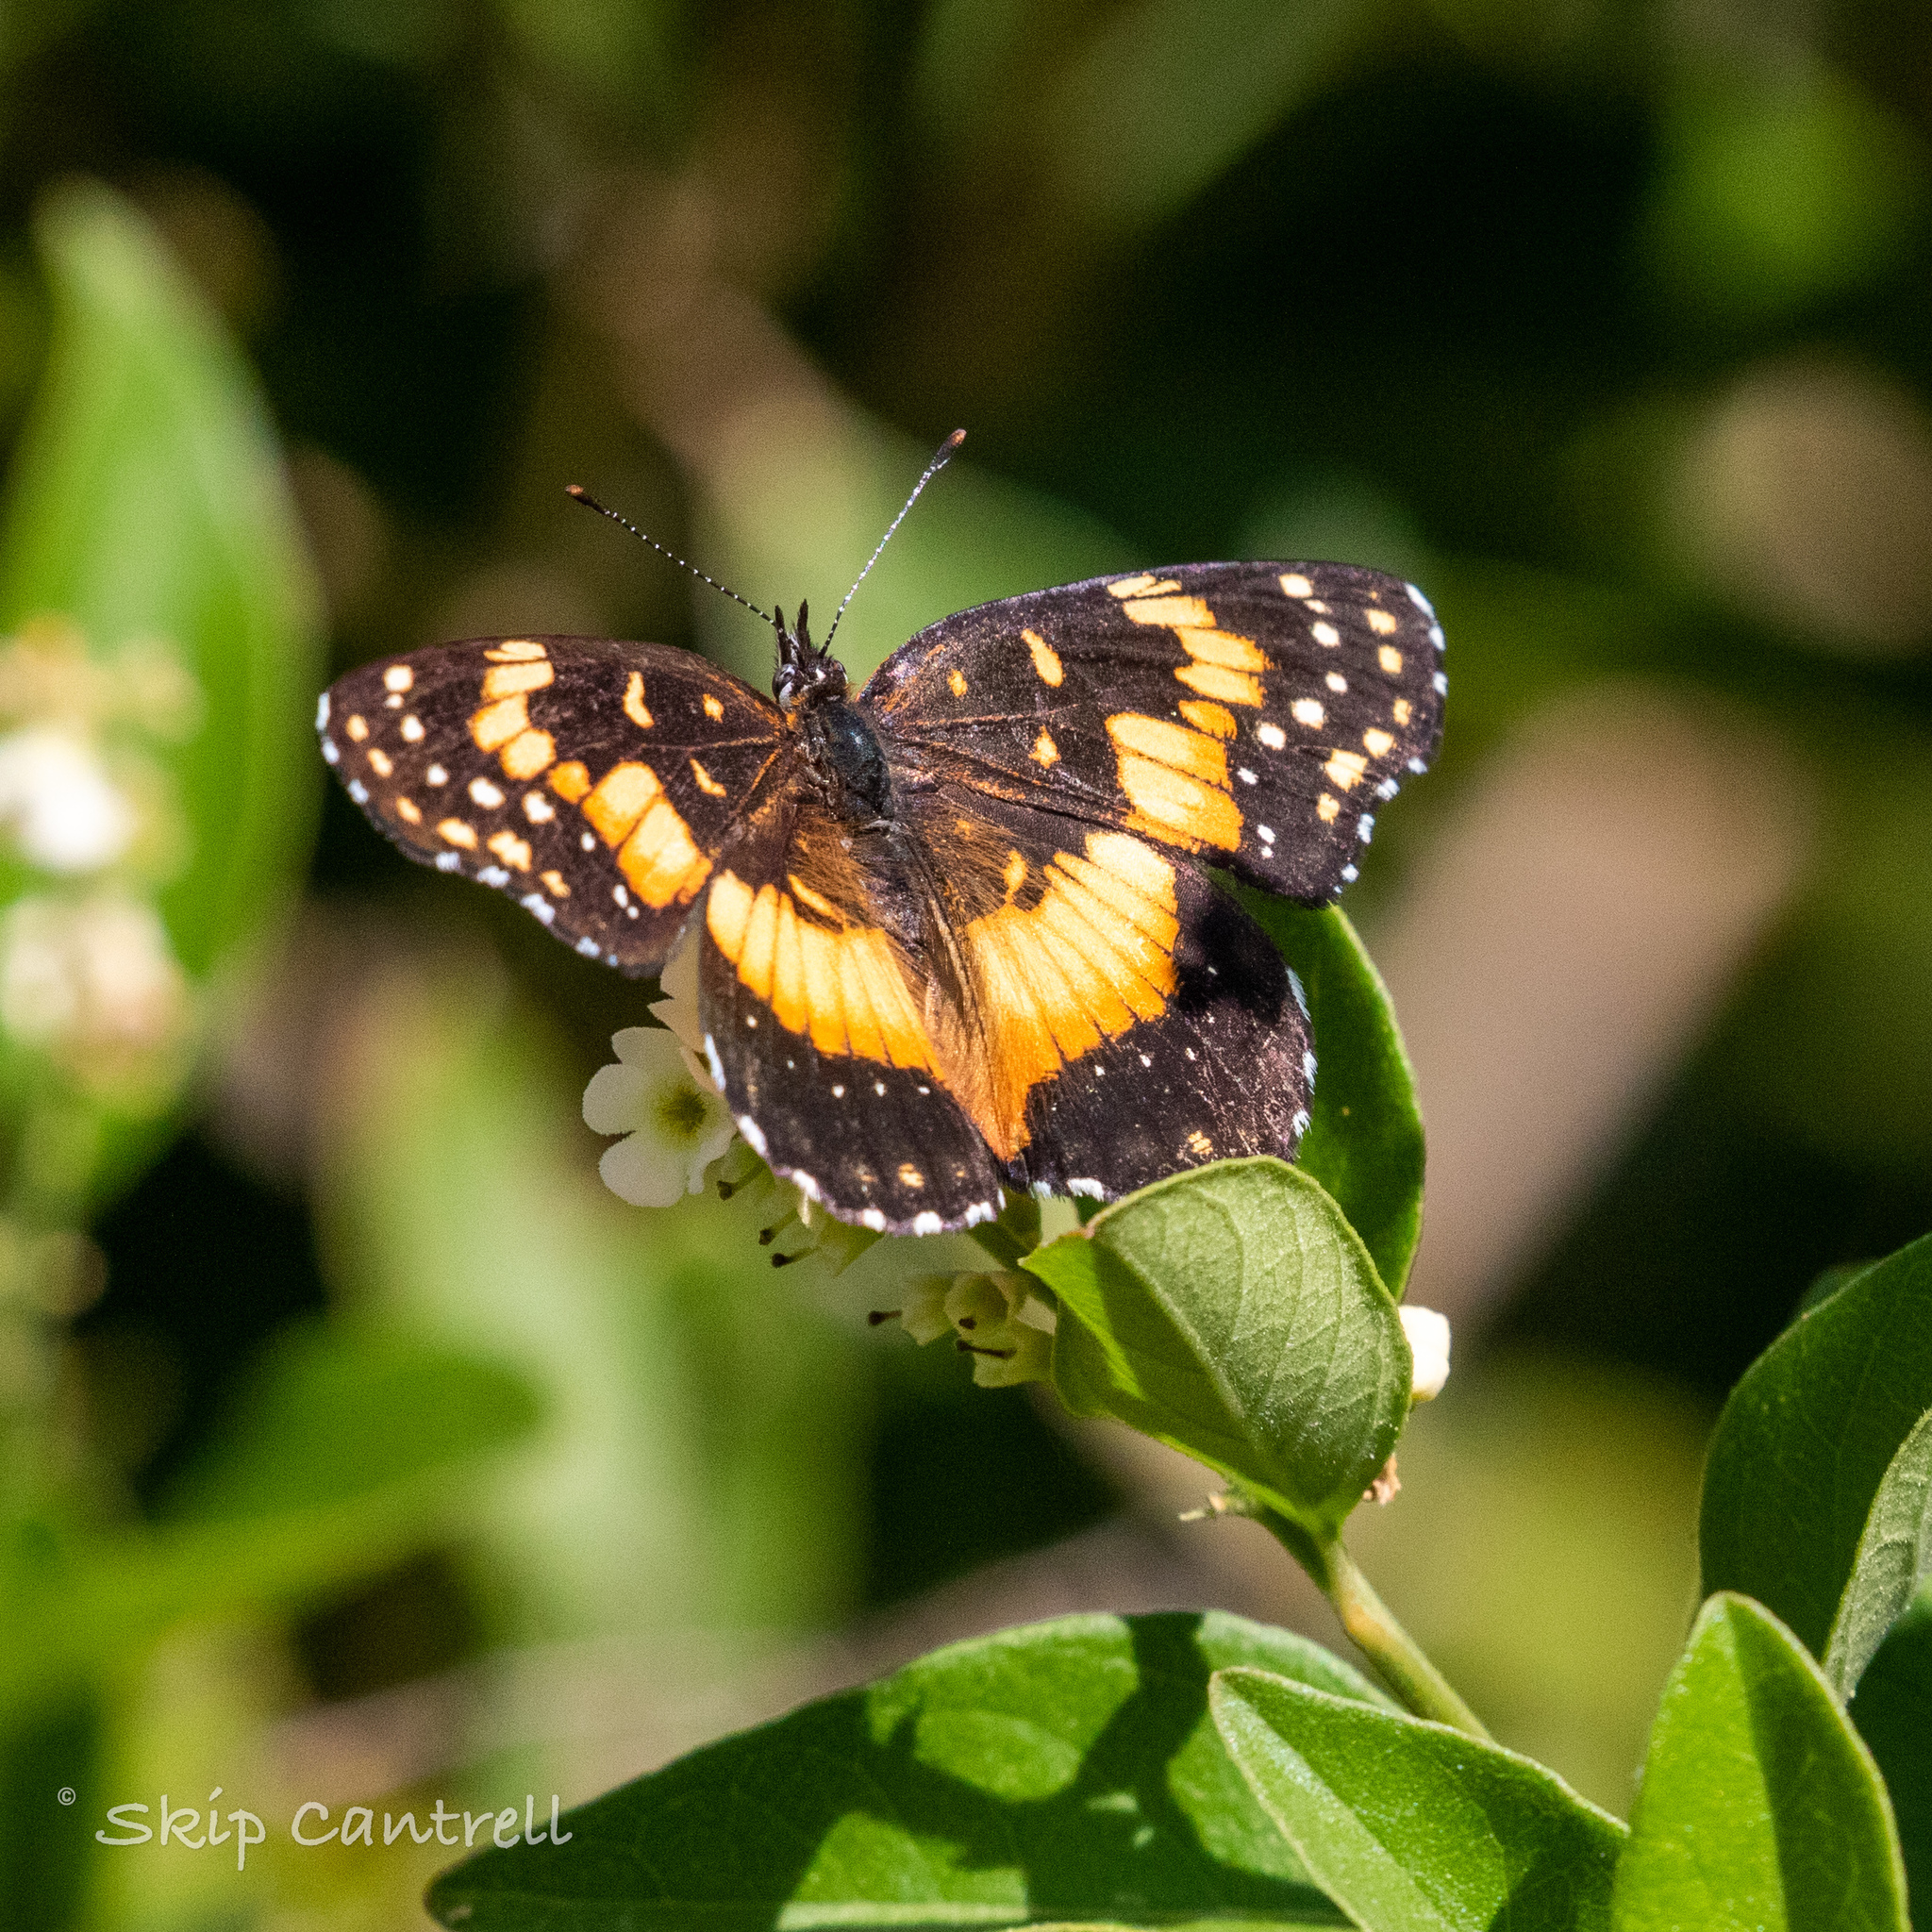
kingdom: Animalia
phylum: Arthropoda
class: Insecta
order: Lepidoptera
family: Nymphalidae
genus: Chlosyne
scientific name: Chlosyne lacinia
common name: Bordered patch
